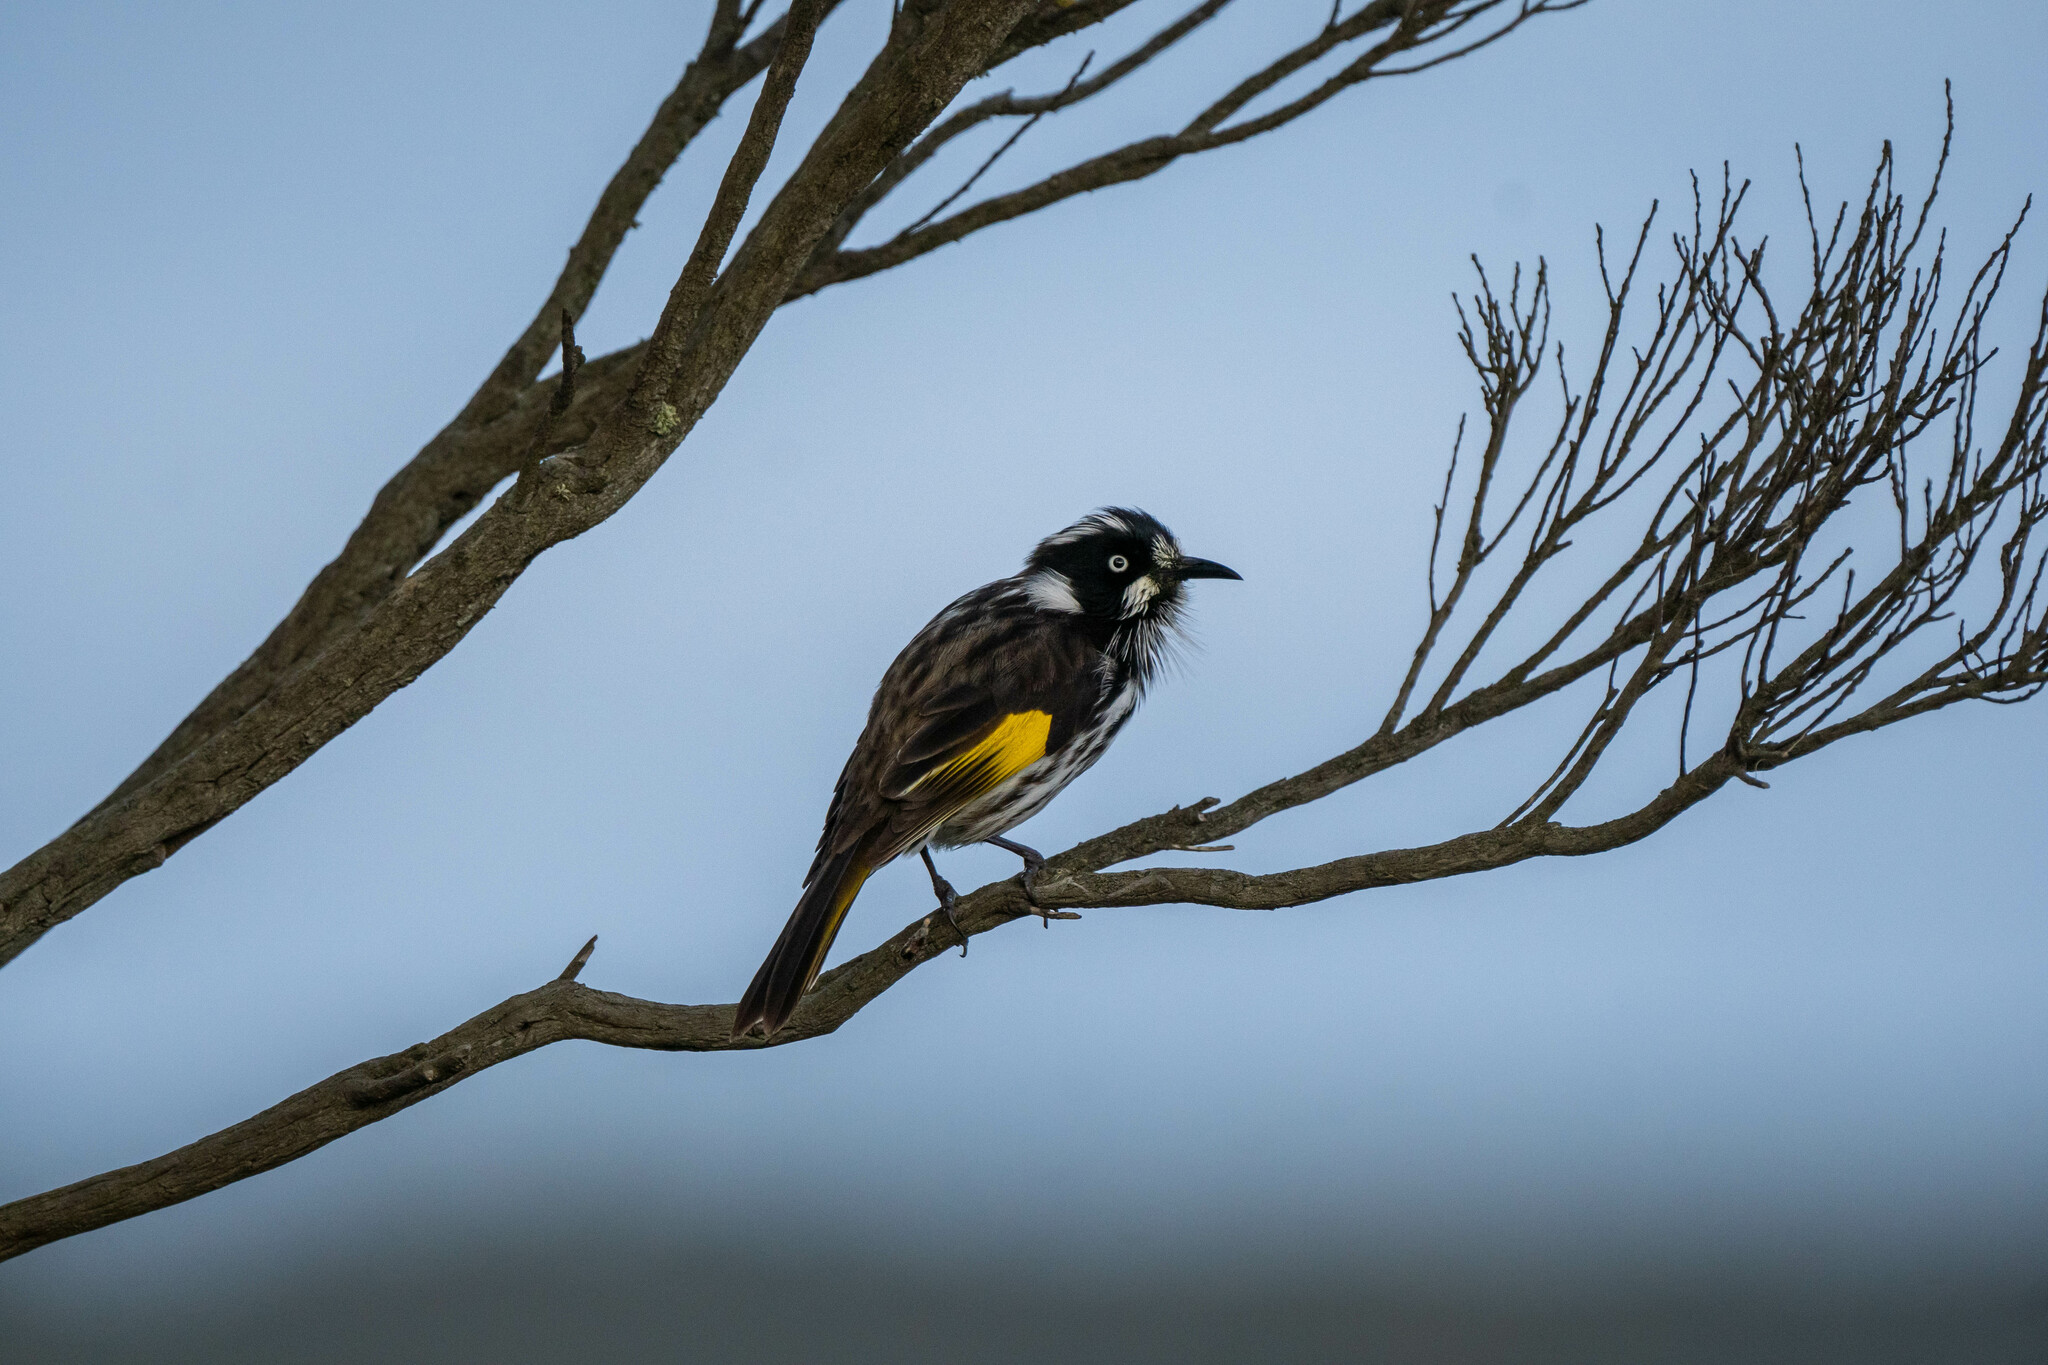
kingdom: Animalia
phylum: Chordata
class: Aves
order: Passeriformes
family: Meliphagidae
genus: Phylidonyris
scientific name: Phylidonyris novaehollandiae
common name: New holland honeyeater
